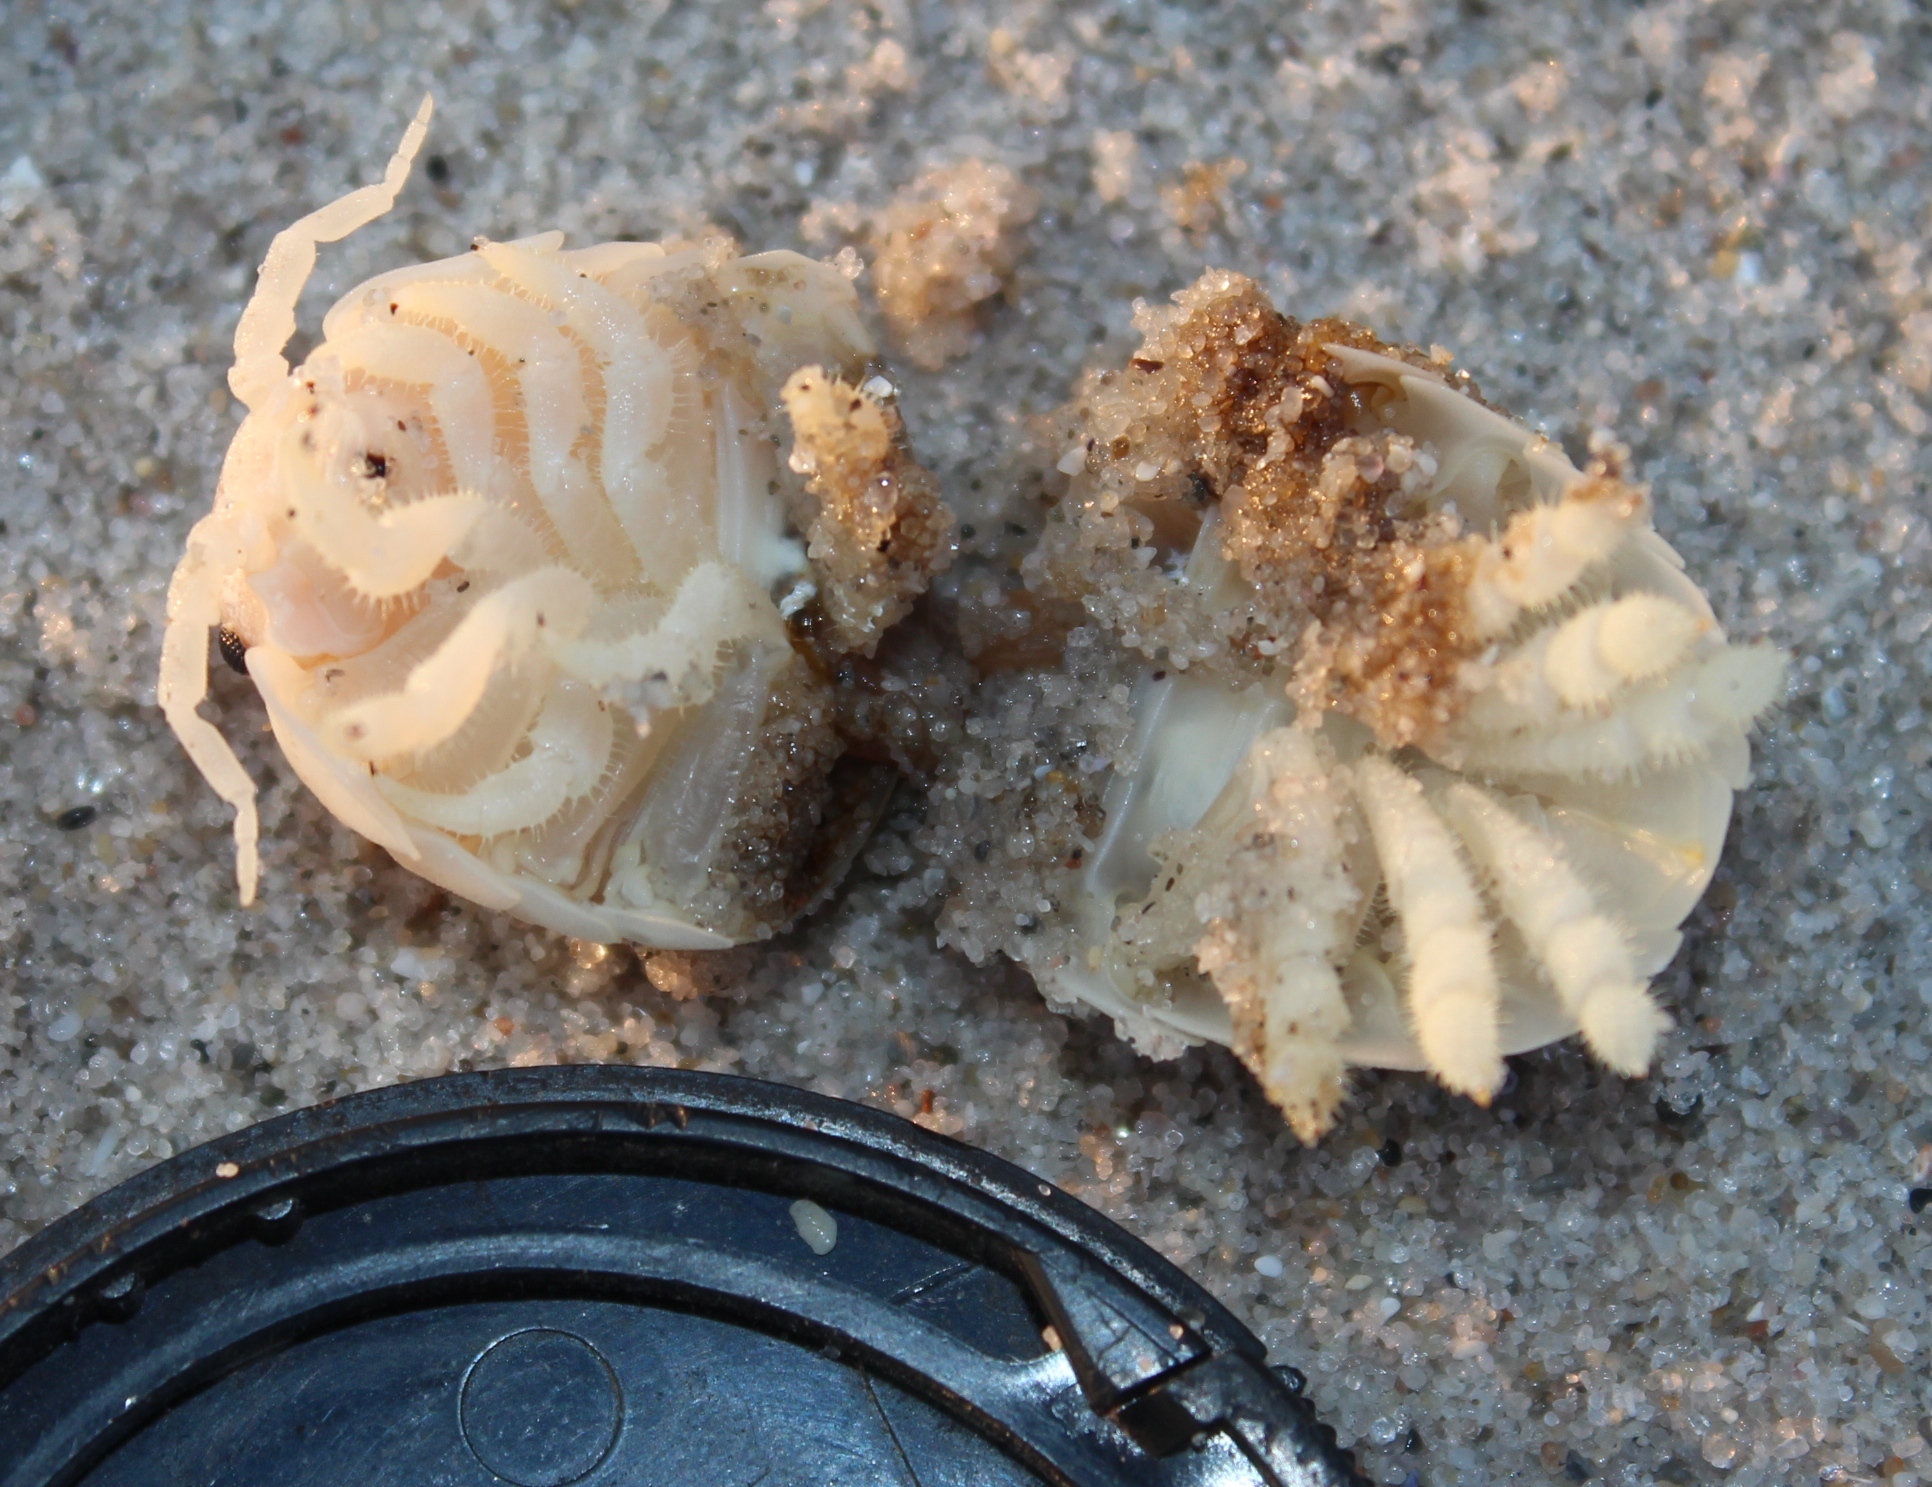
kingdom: Animalia
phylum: Arthropoda
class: Malacostraca
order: Isopoda
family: Tylidae
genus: Tylos
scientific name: Tylos granulatus
